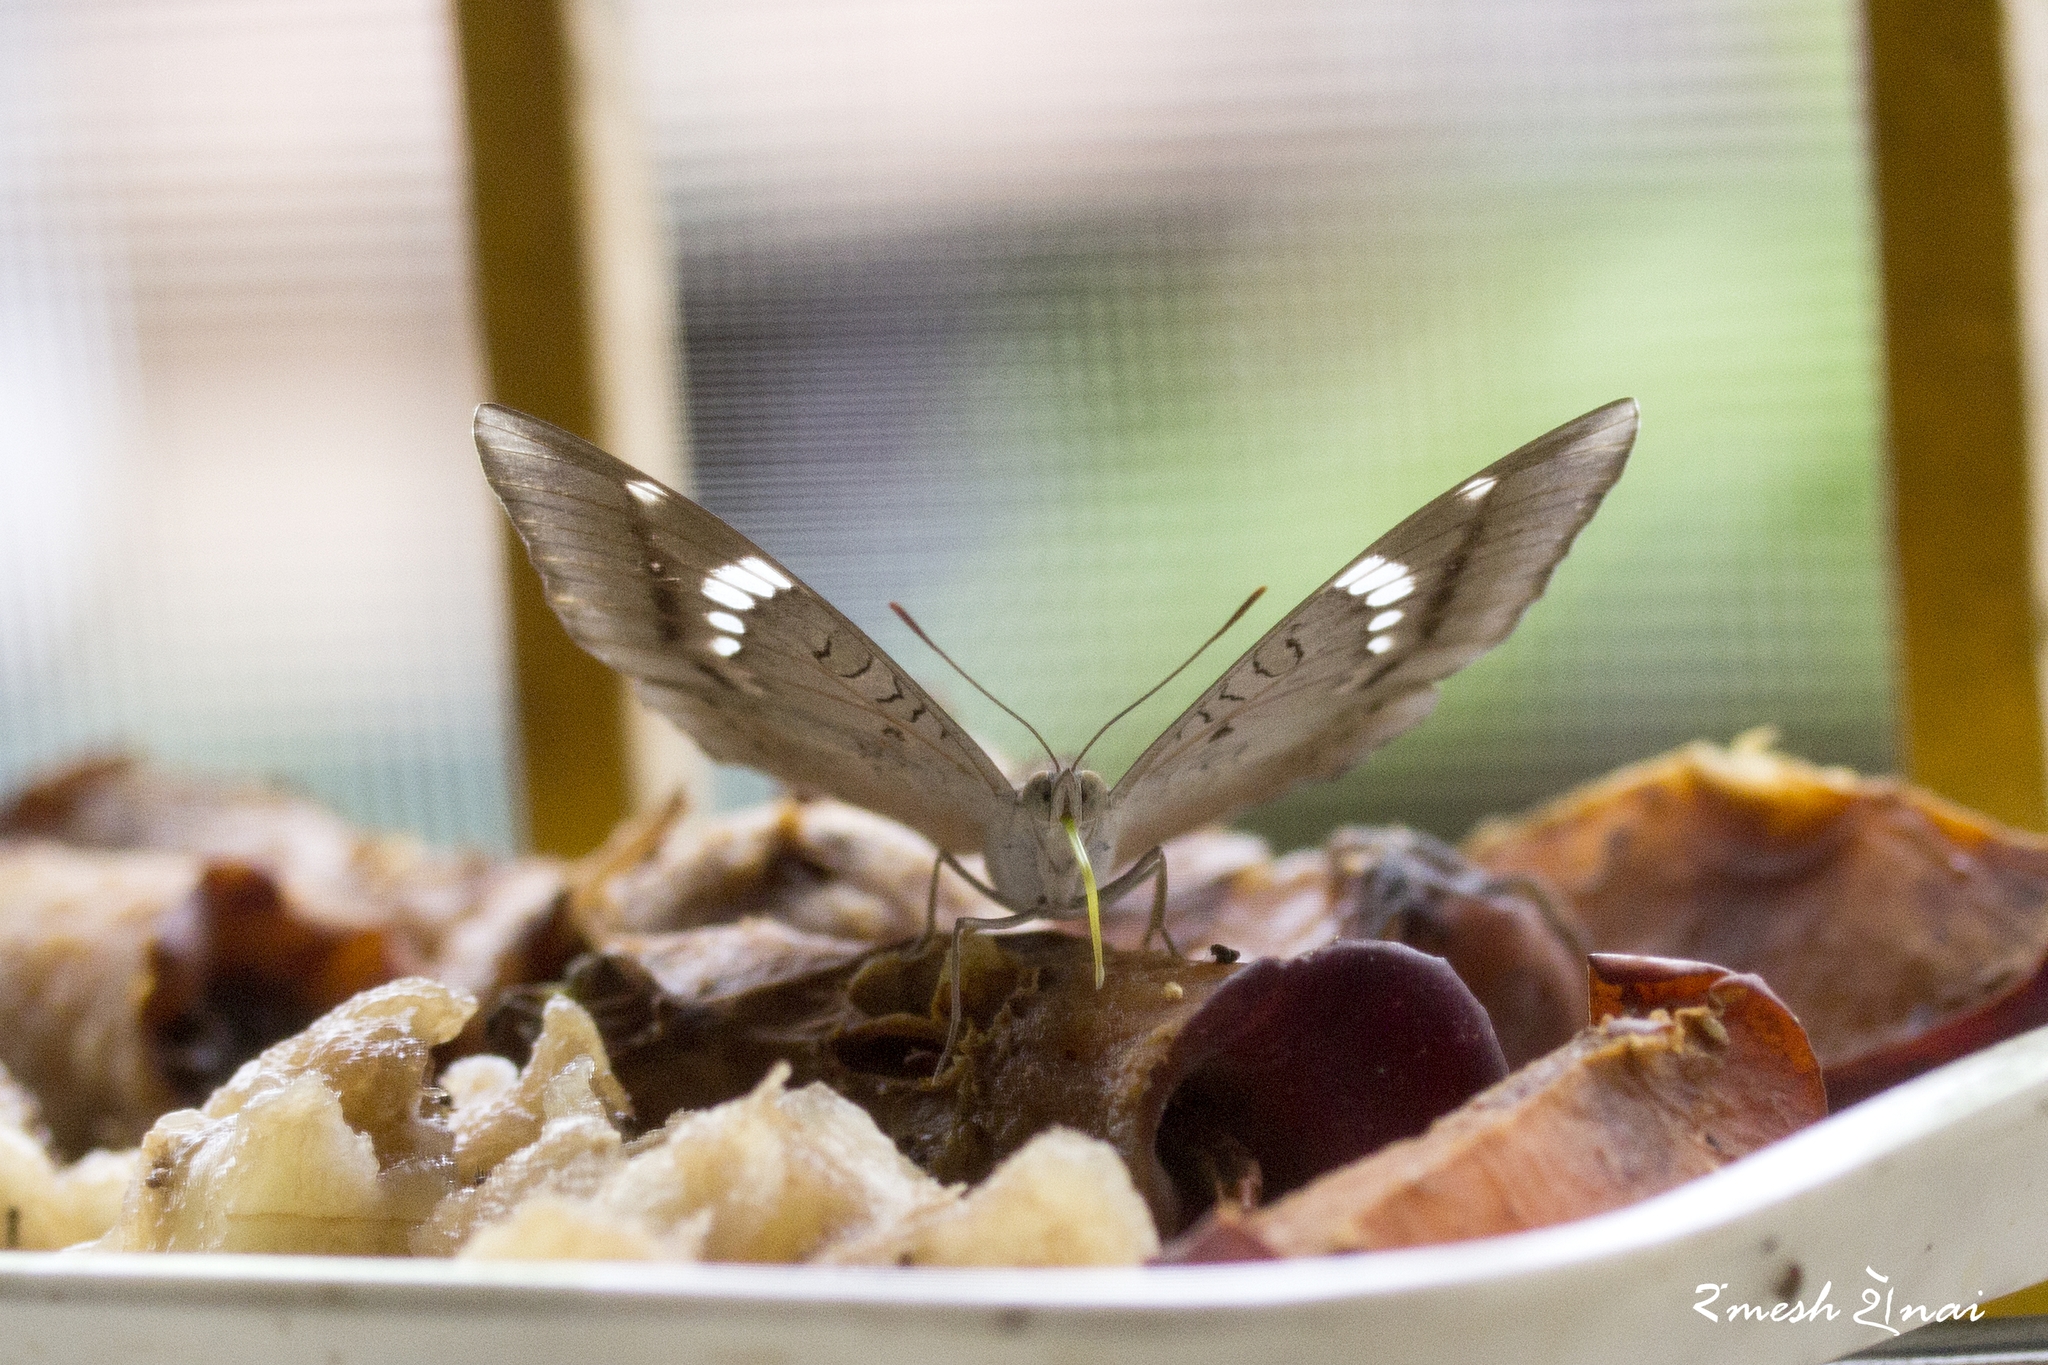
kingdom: Animalia
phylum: Arthropoda
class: Insecta
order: Lepidoptera
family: Nymphalidae
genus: Euthalia
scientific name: Euthalia aconthea
